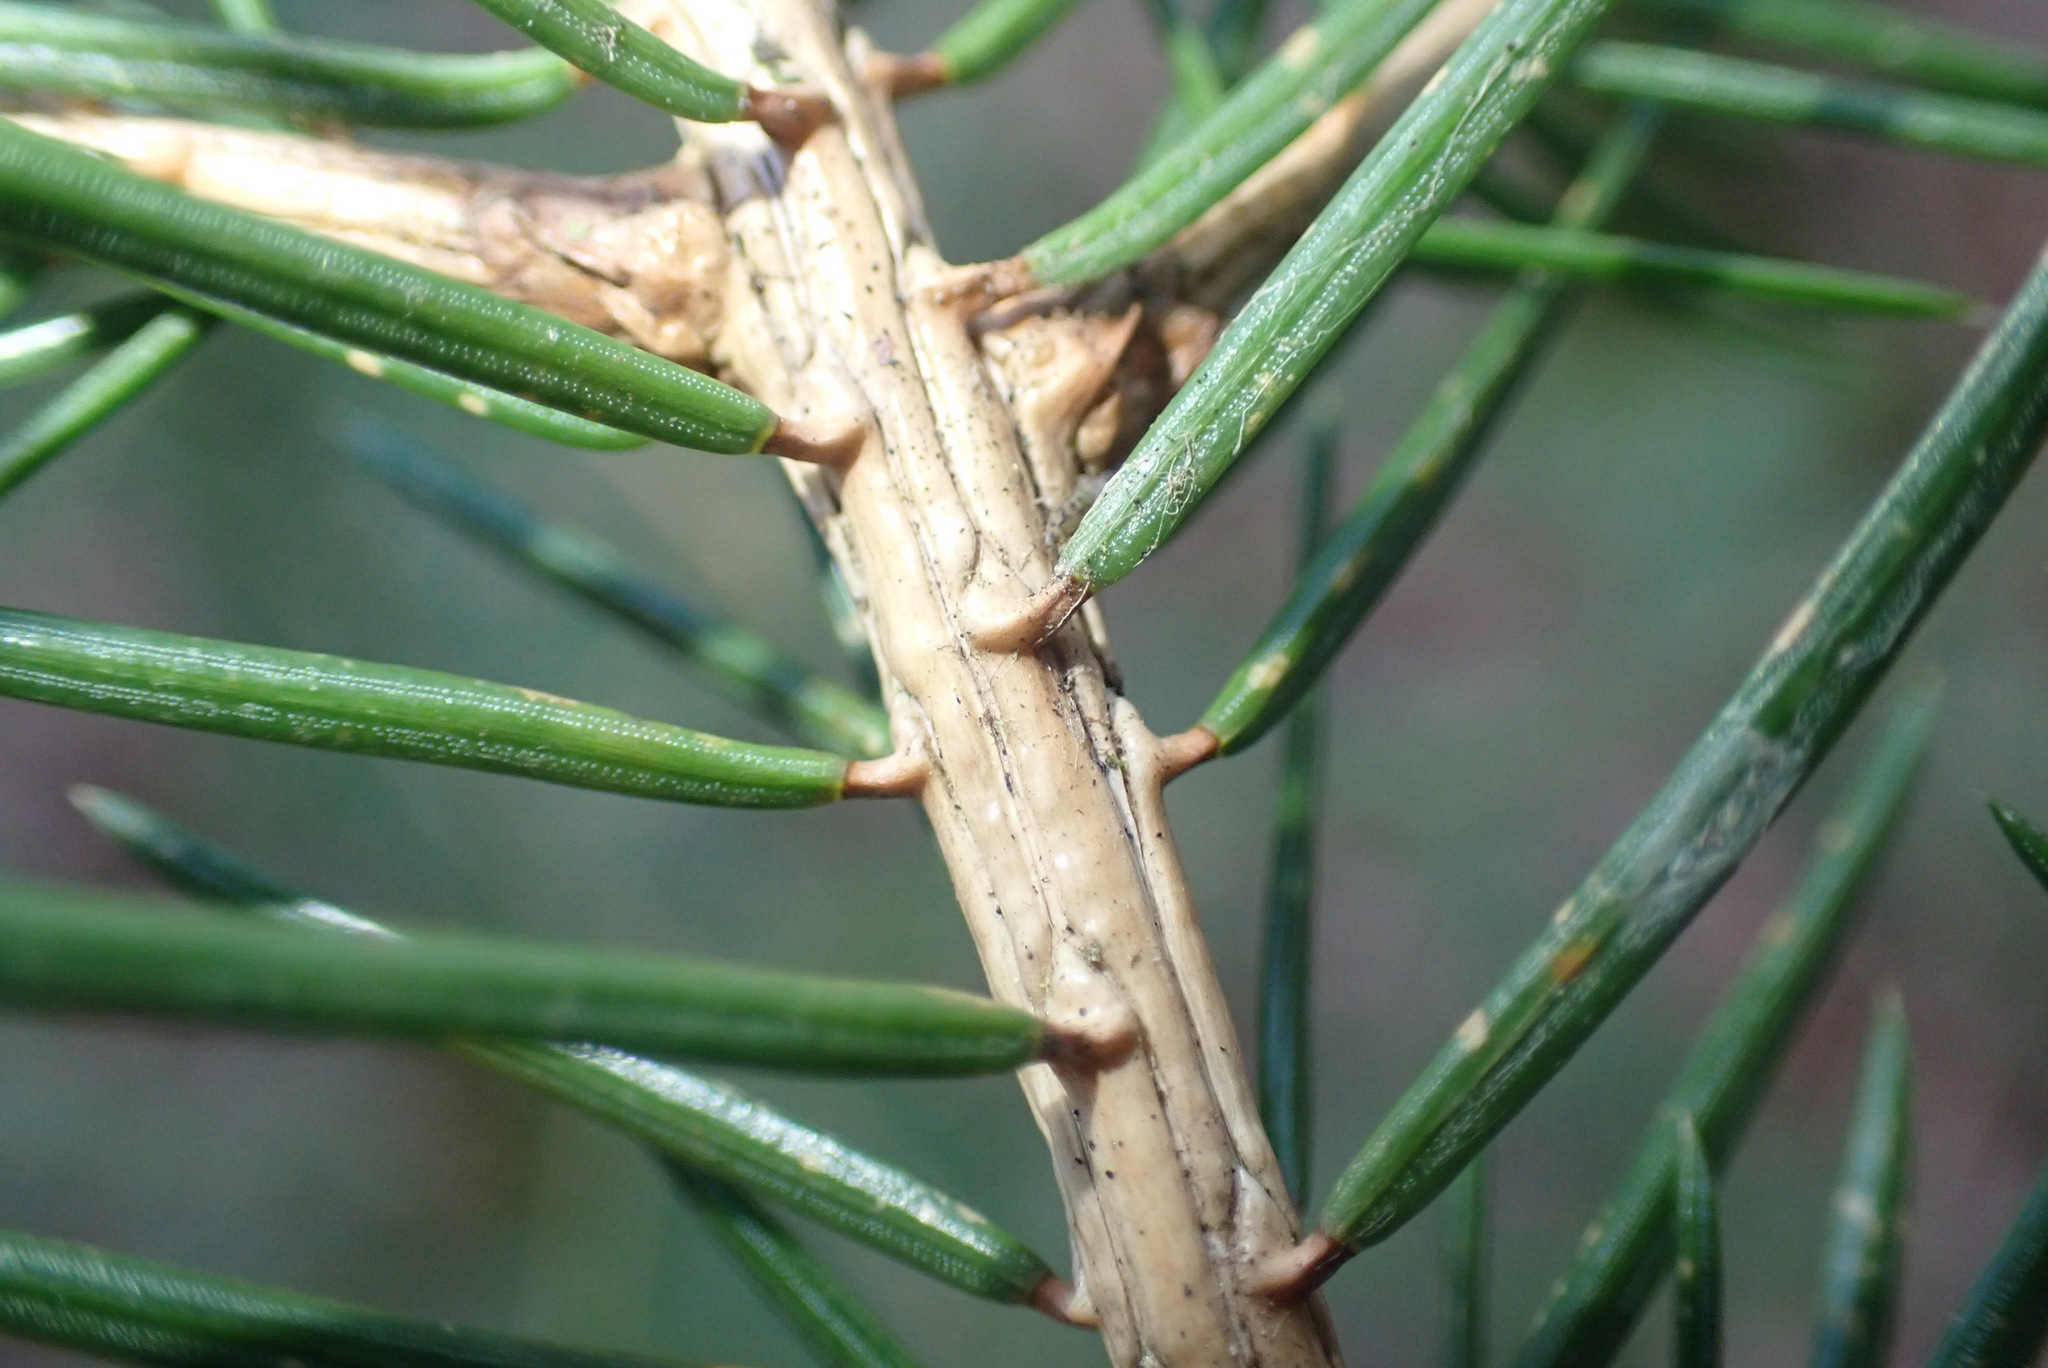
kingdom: Plantae
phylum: Tracheophyta
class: Pinopsida
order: Pinales
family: Pinaceae
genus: Picea
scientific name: Picea abies
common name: Norway spruce
